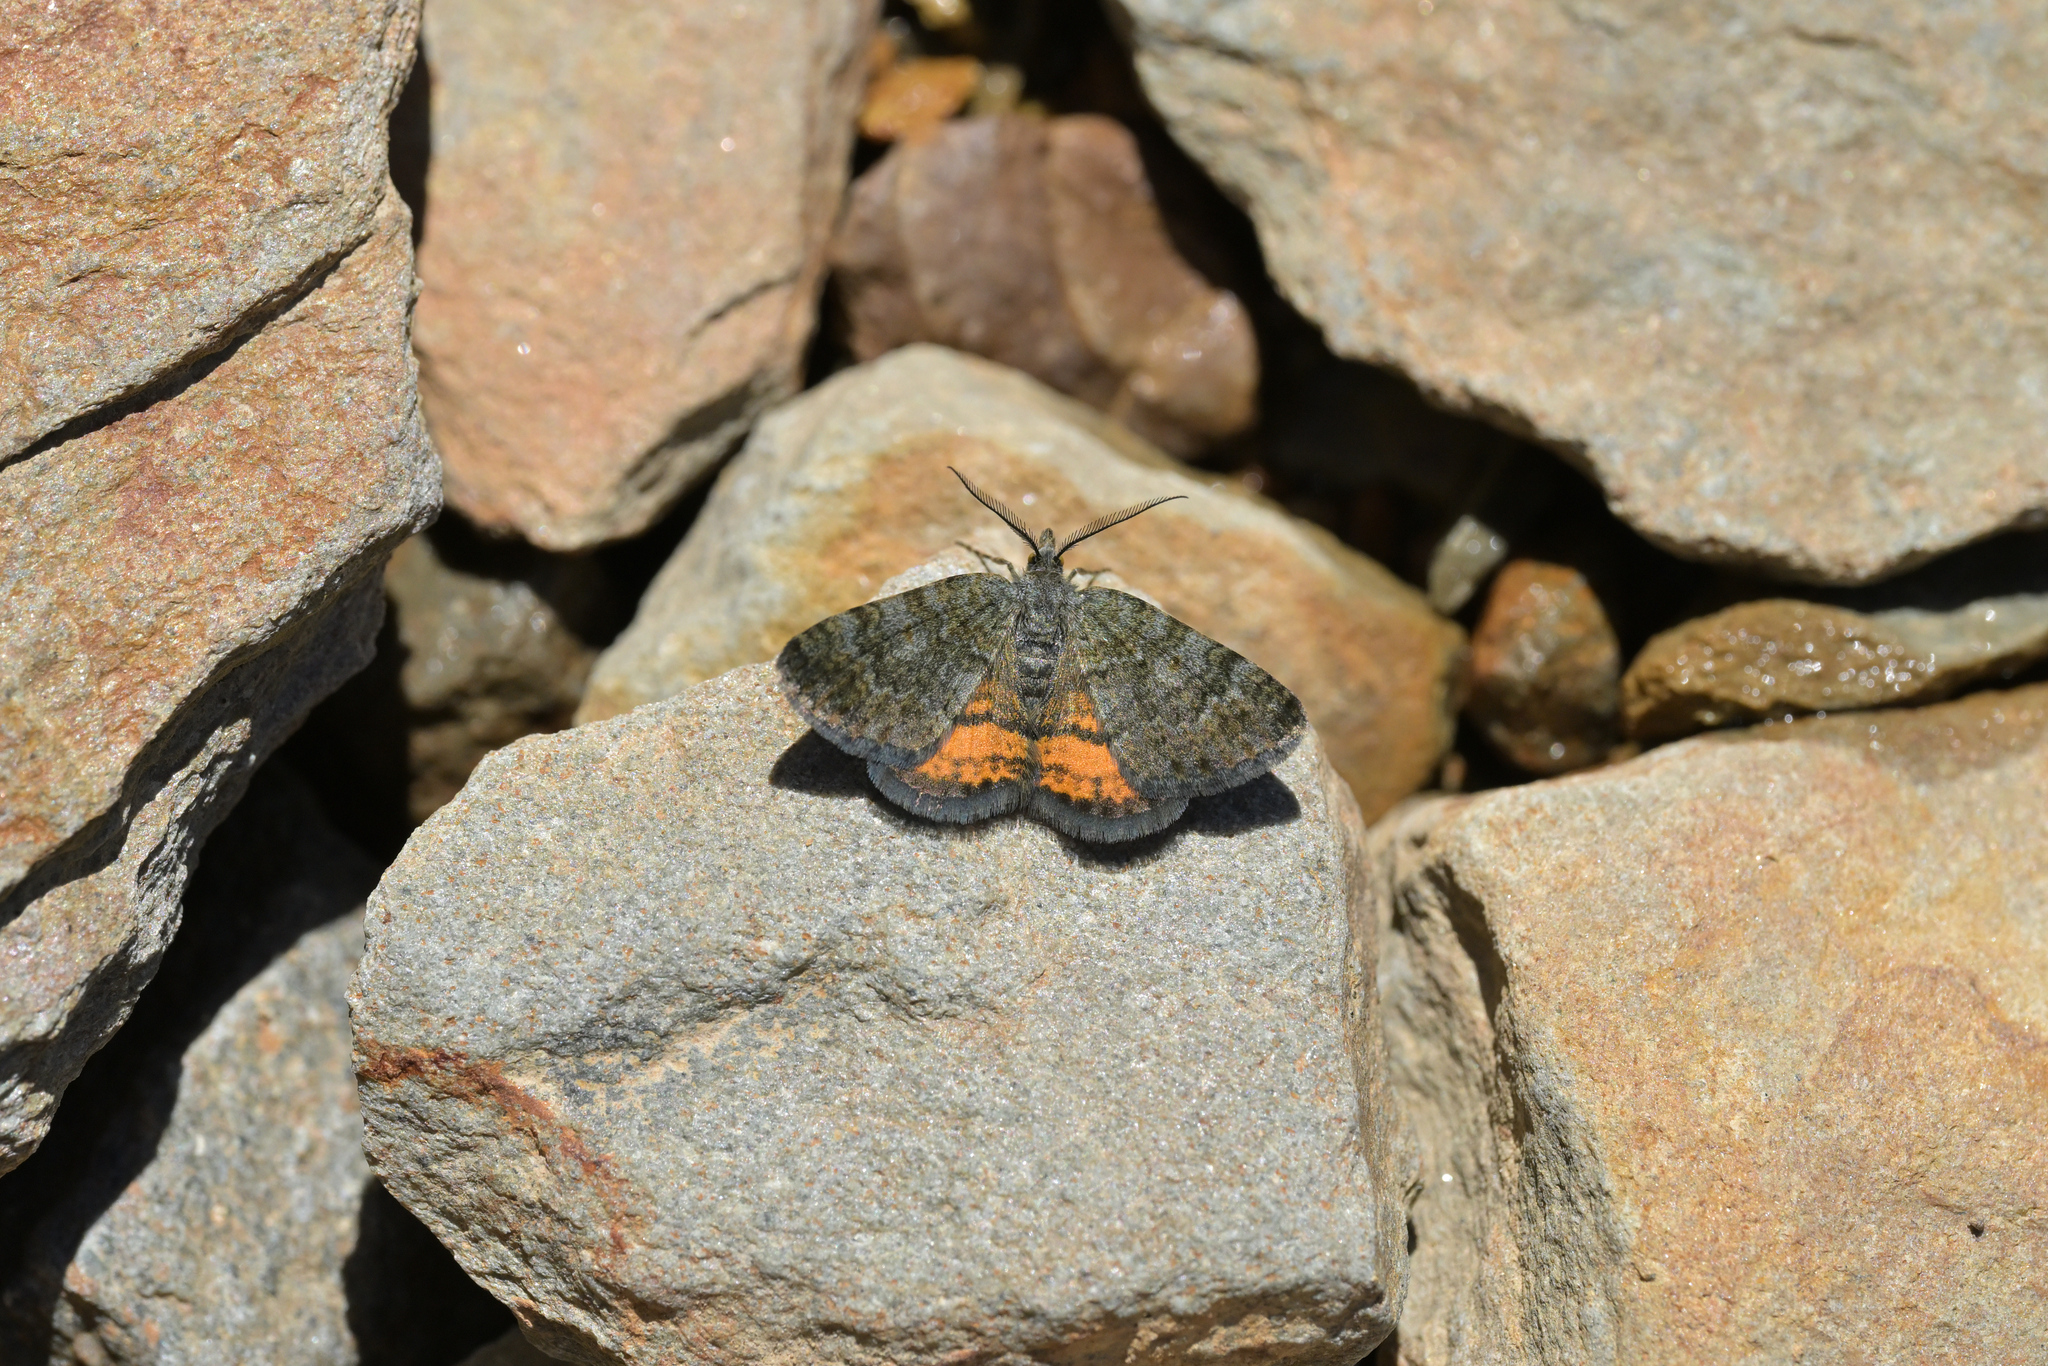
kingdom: Animalia
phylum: Arthropoda
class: Insecta
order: Lepidoptera
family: Geometridae
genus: Paranotoreas
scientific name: Paranotoreas brephosata
